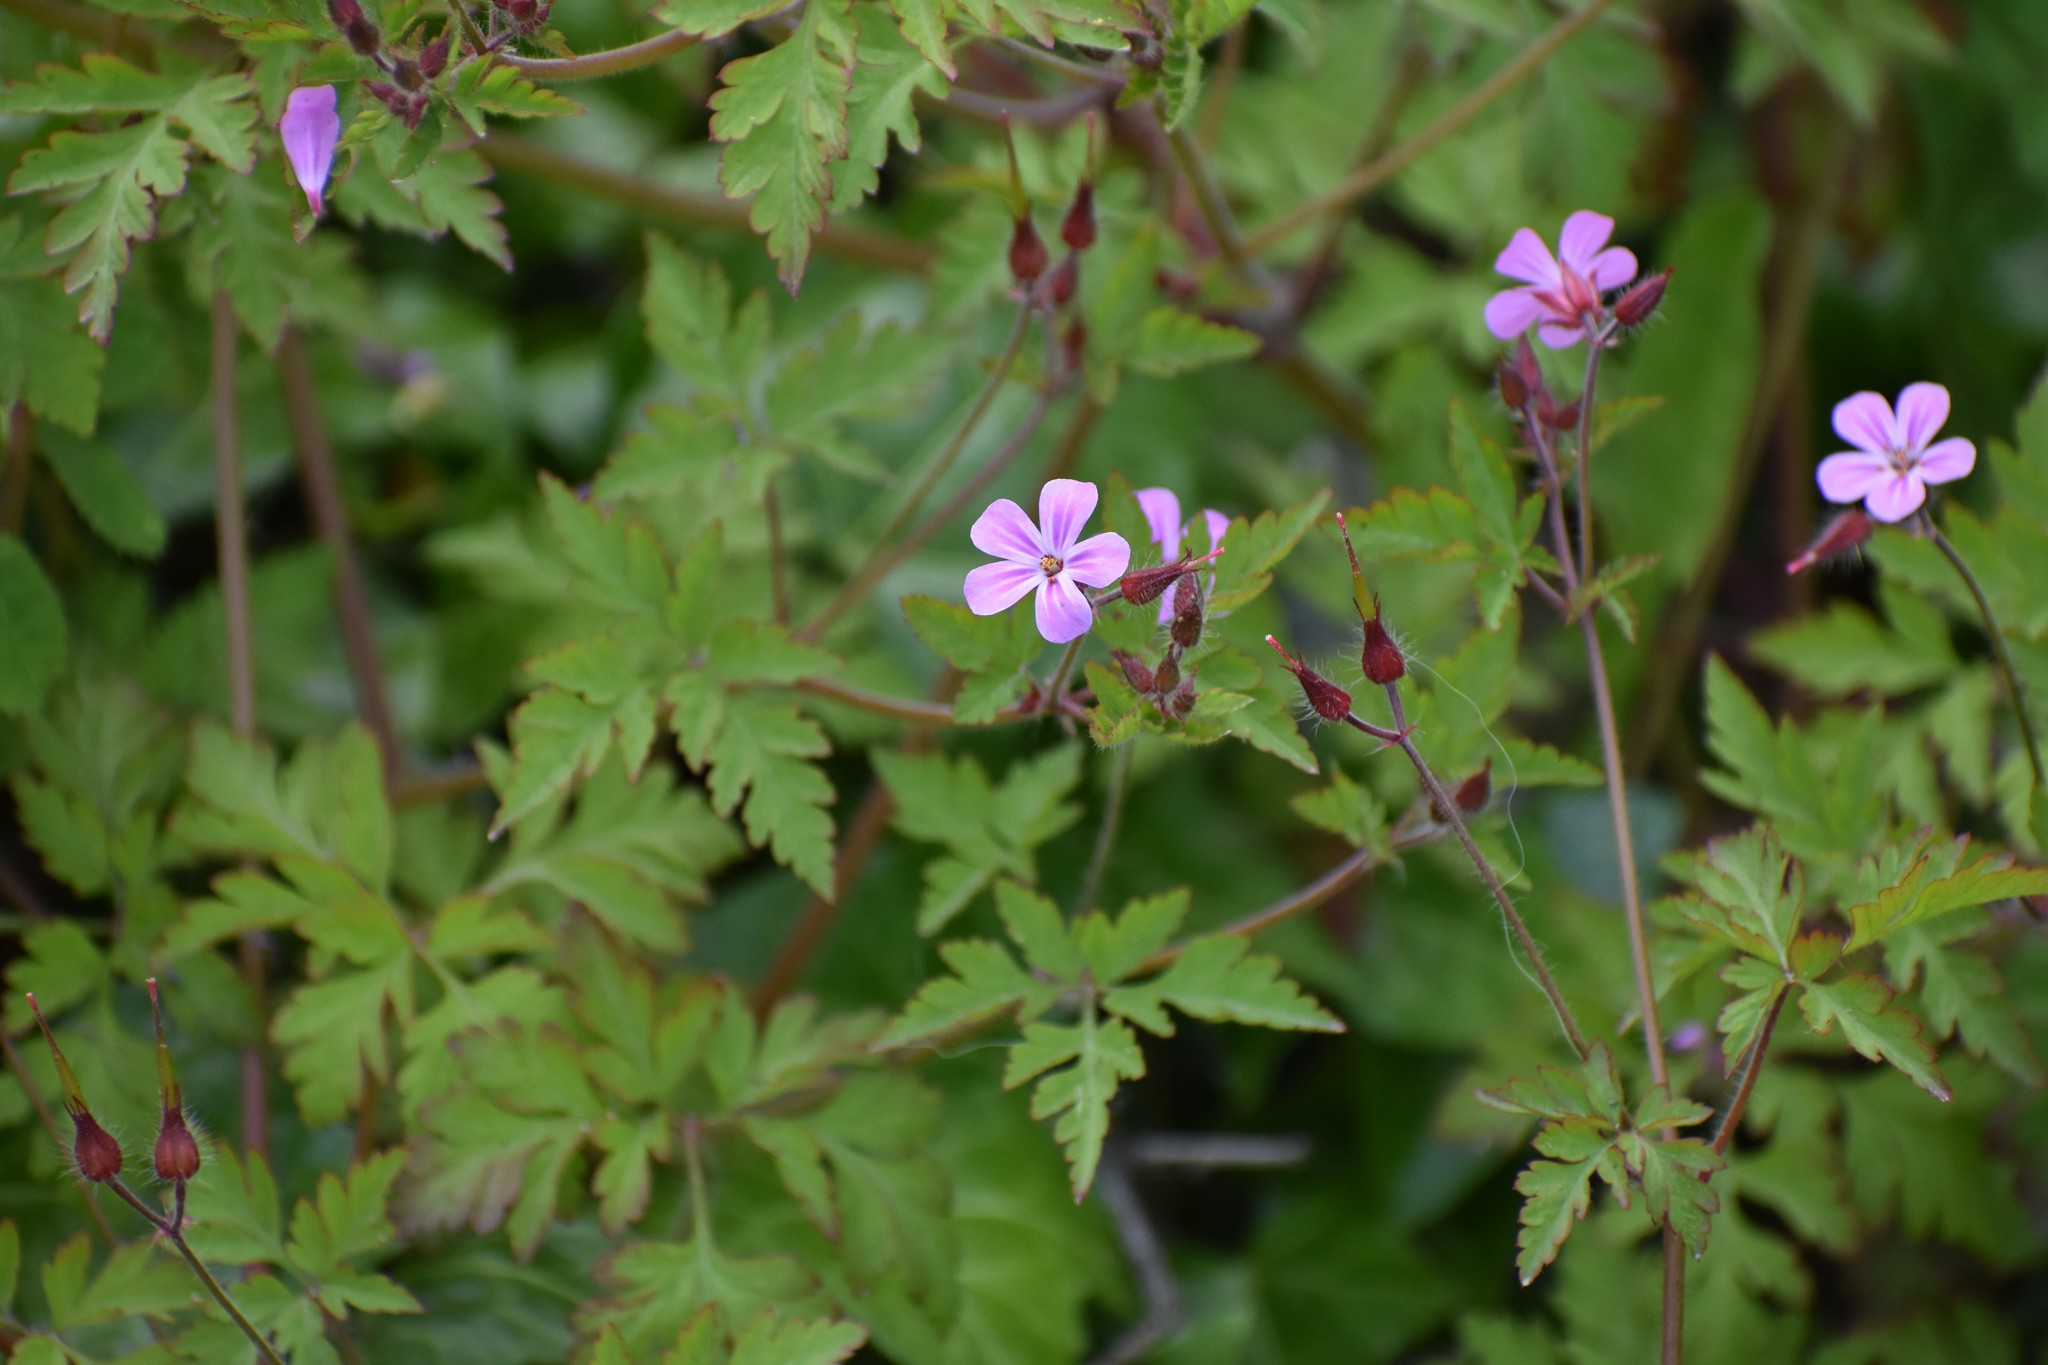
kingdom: Plantae
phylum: Tracheophyta
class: Magnoliopsida
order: Geraniales
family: Geraniaceae
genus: Geranium
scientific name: Geranium robertianum
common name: Herb-robert
